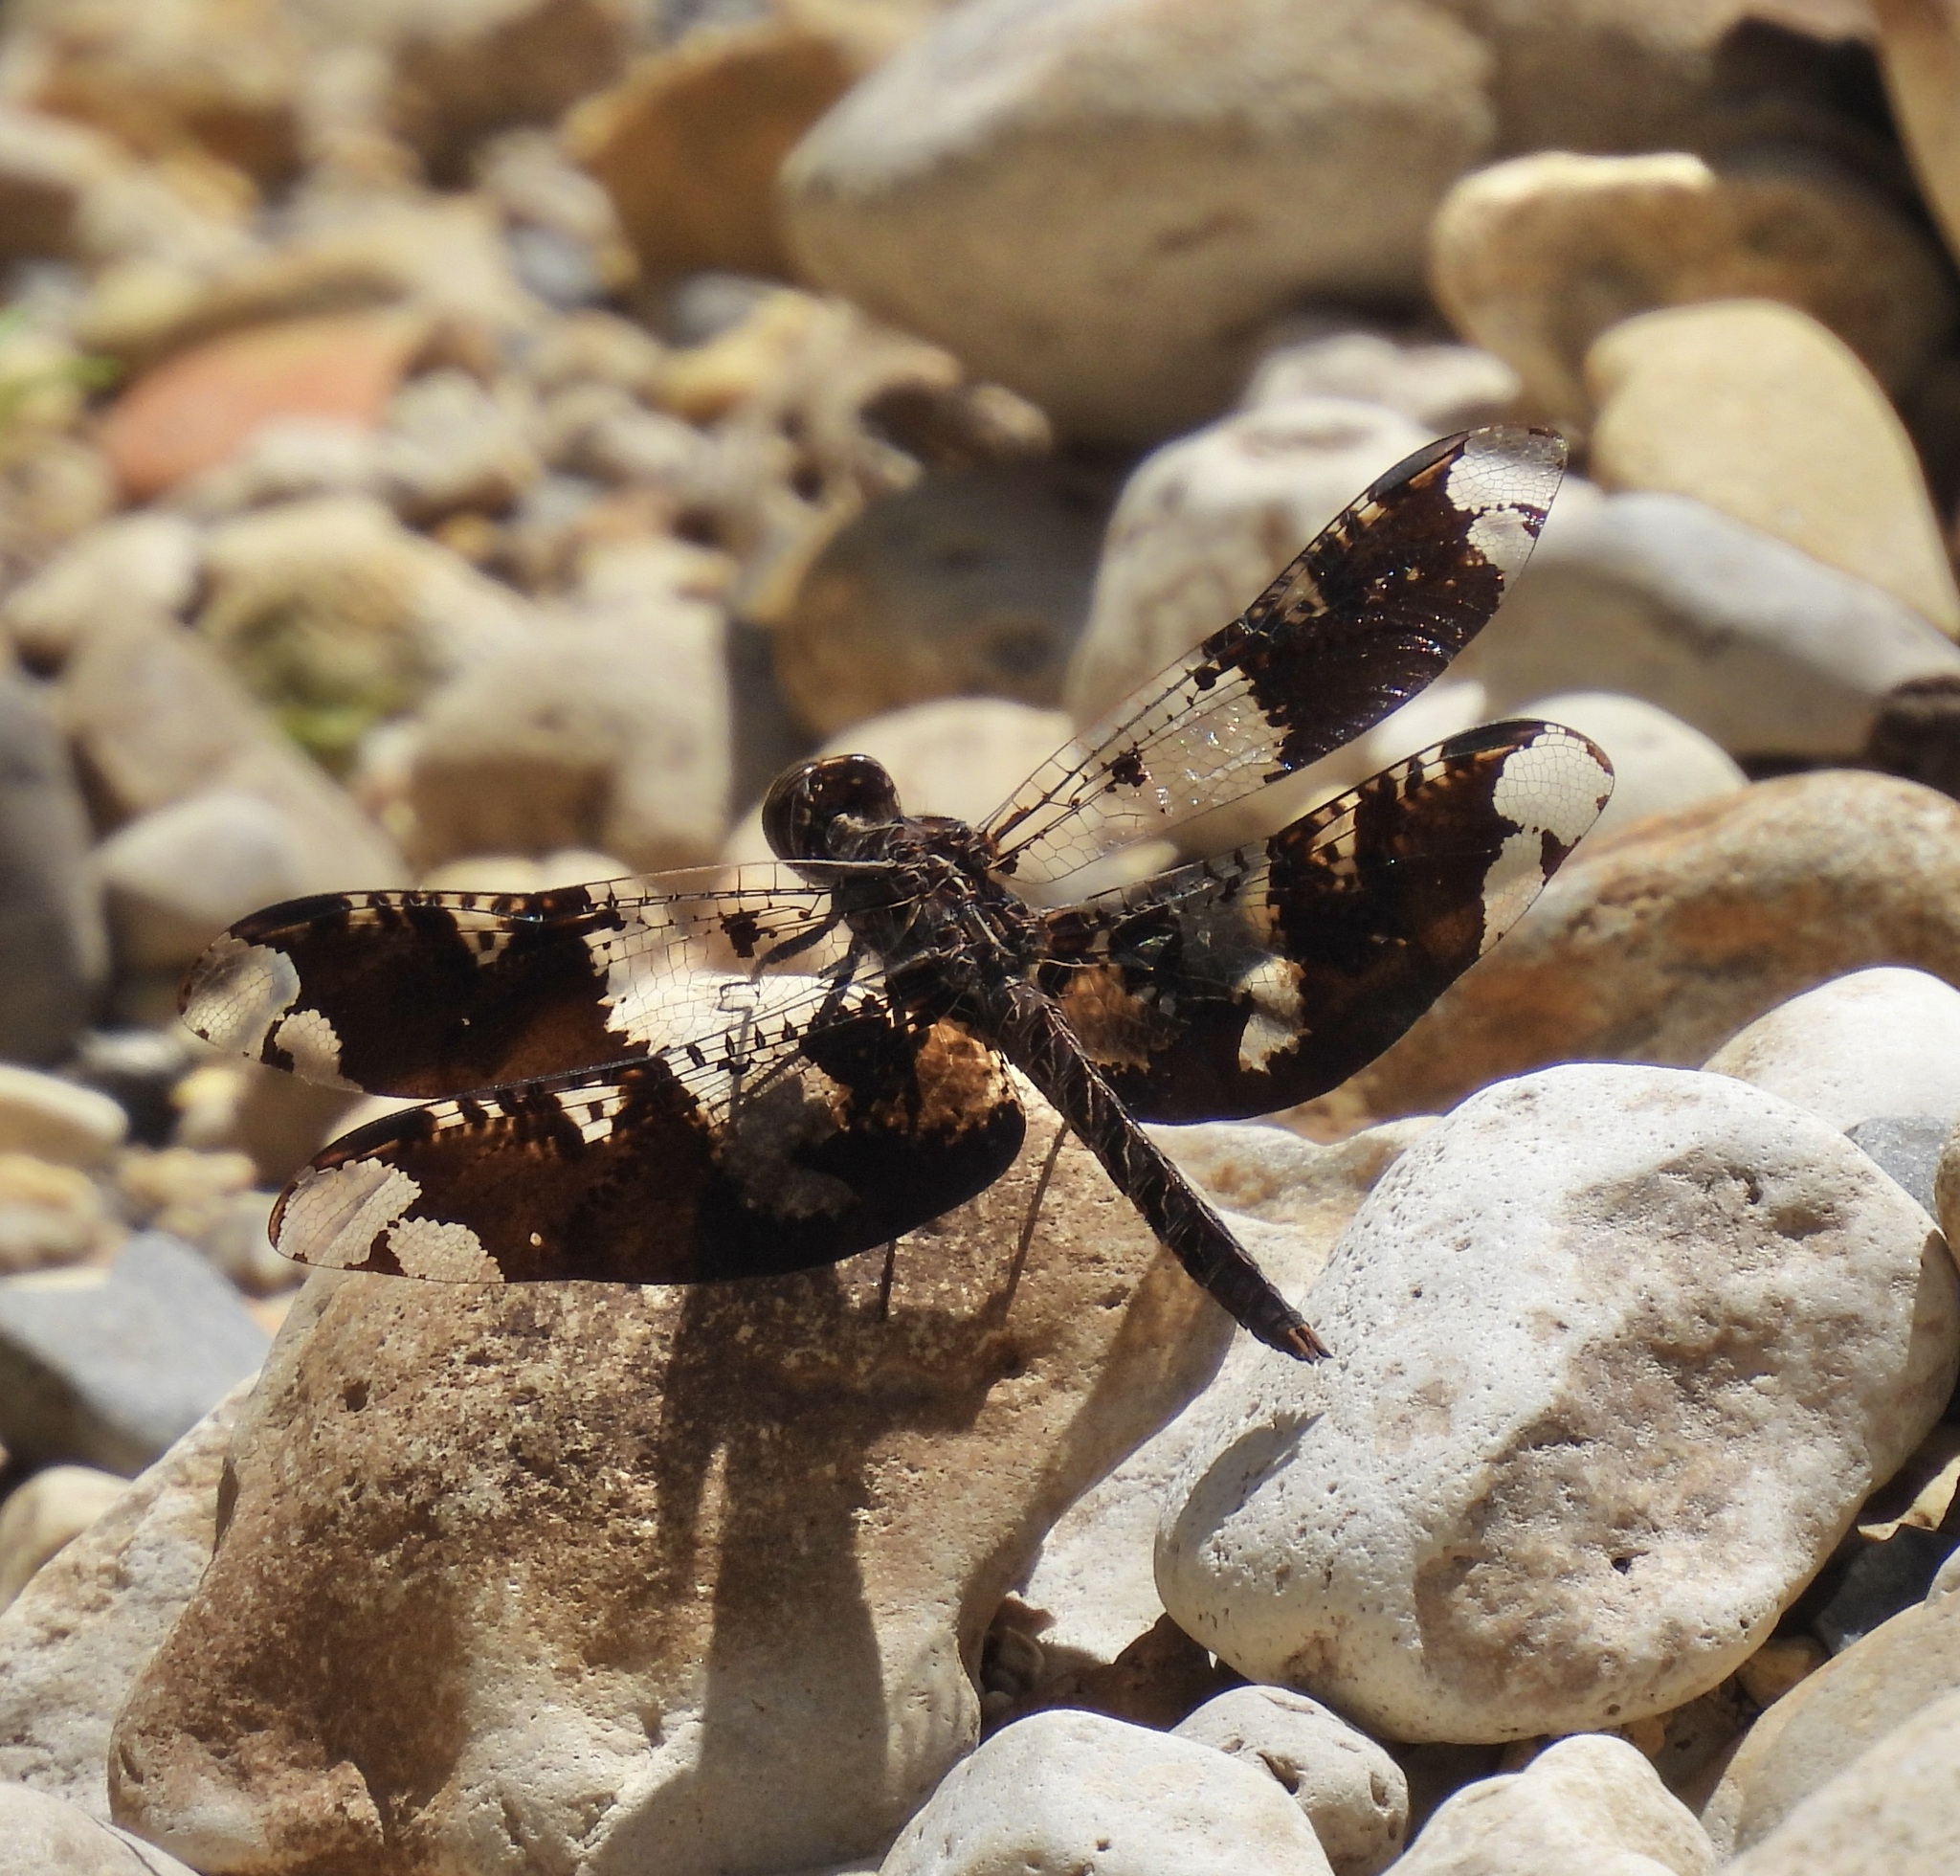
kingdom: Animalia
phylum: Arthropoda
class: Insecta
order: Odonata
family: Libellulidae
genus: Pseudoleon
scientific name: Pseudoleon superbus
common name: Filigree skimmer
